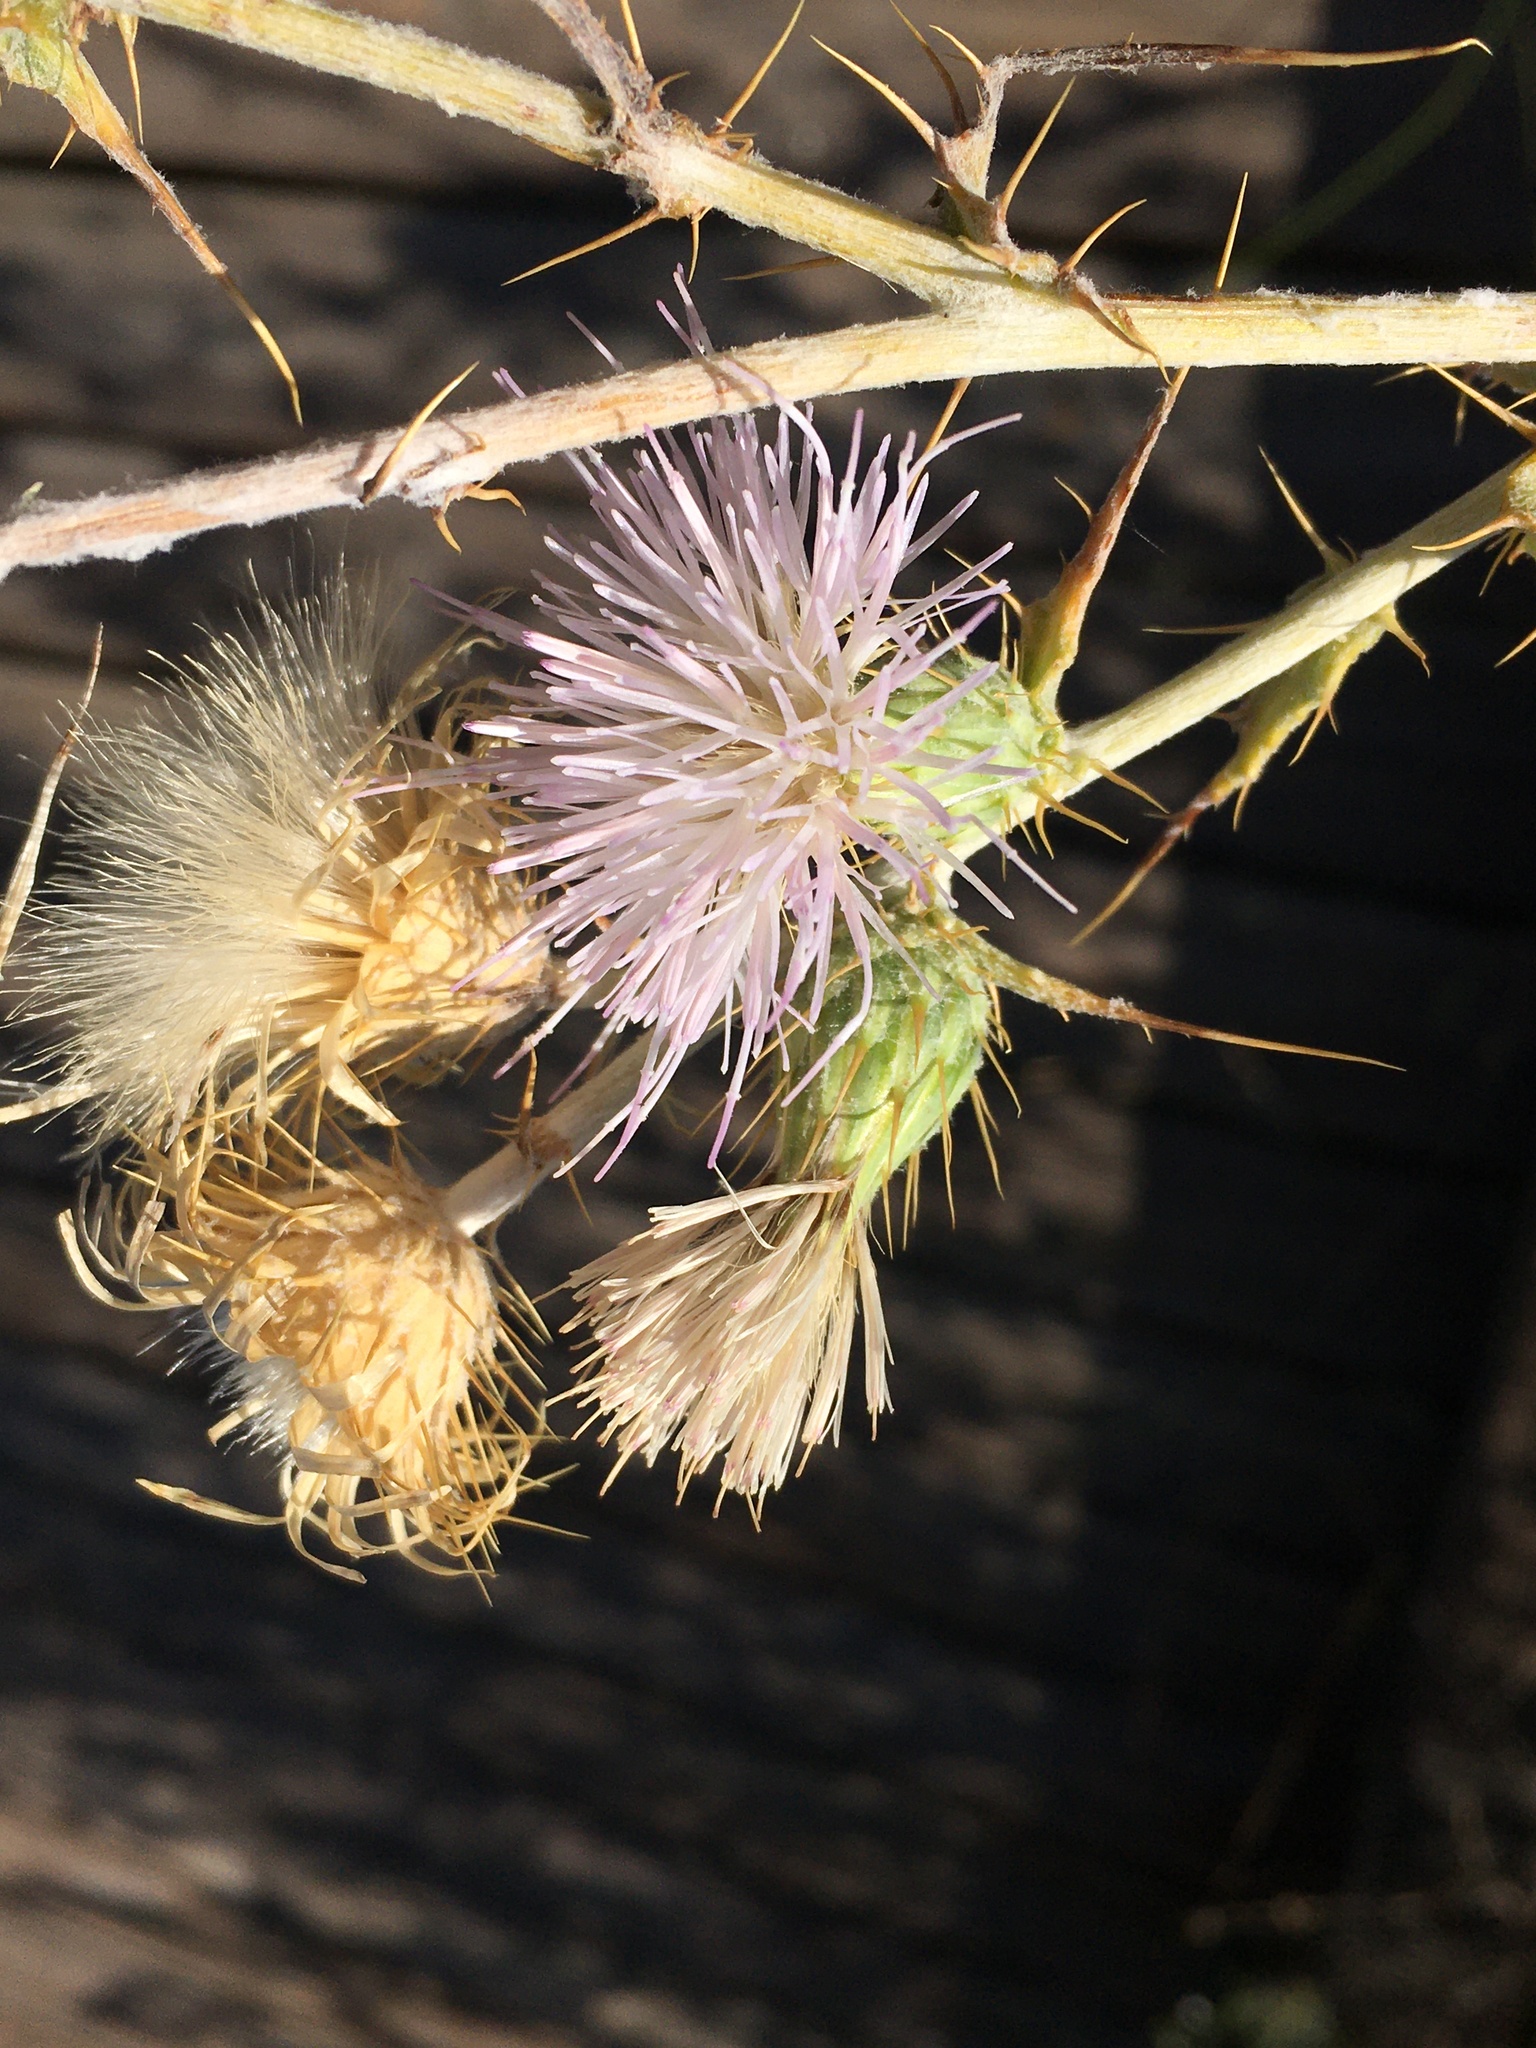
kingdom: Plantae
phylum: Tracheophyta
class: Magnoliopsida
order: Asterales
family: Asteraceae
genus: Cirsium
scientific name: Cirsium mohavense
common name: Mojave thistle
